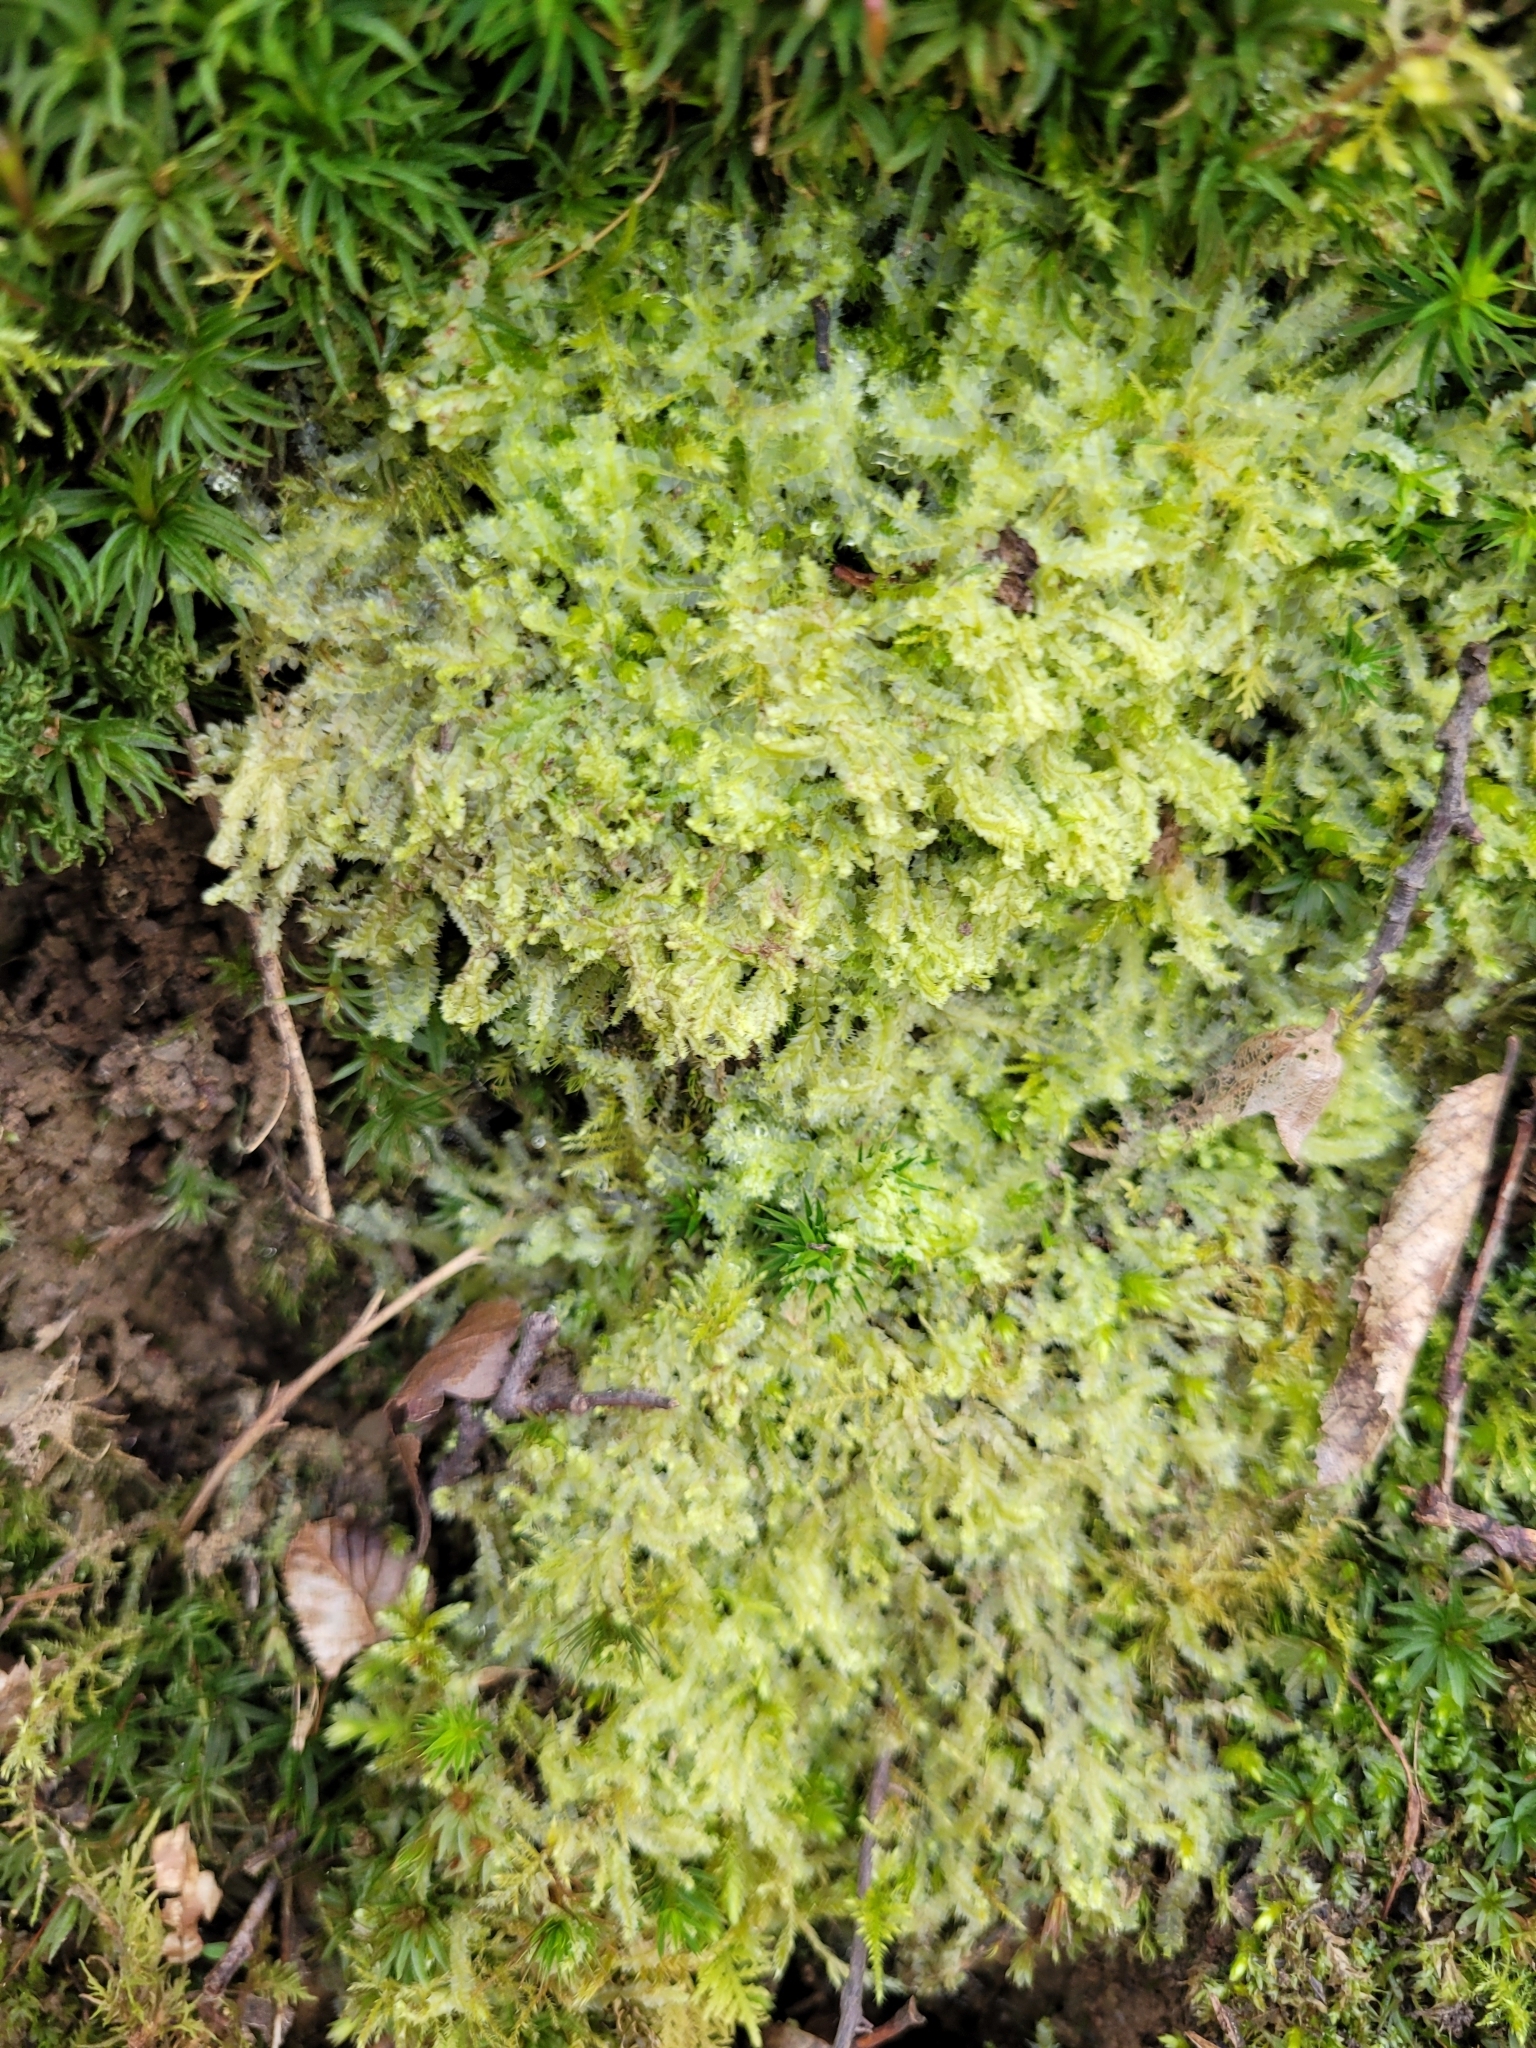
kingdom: Plantae
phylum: Marchantiophyta
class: Jungermanniopsida
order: Jungermanniales
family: Lophocoleaceae
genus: Lophocolea
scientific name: Lophocolea bidentata
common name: Bifid crestwort
